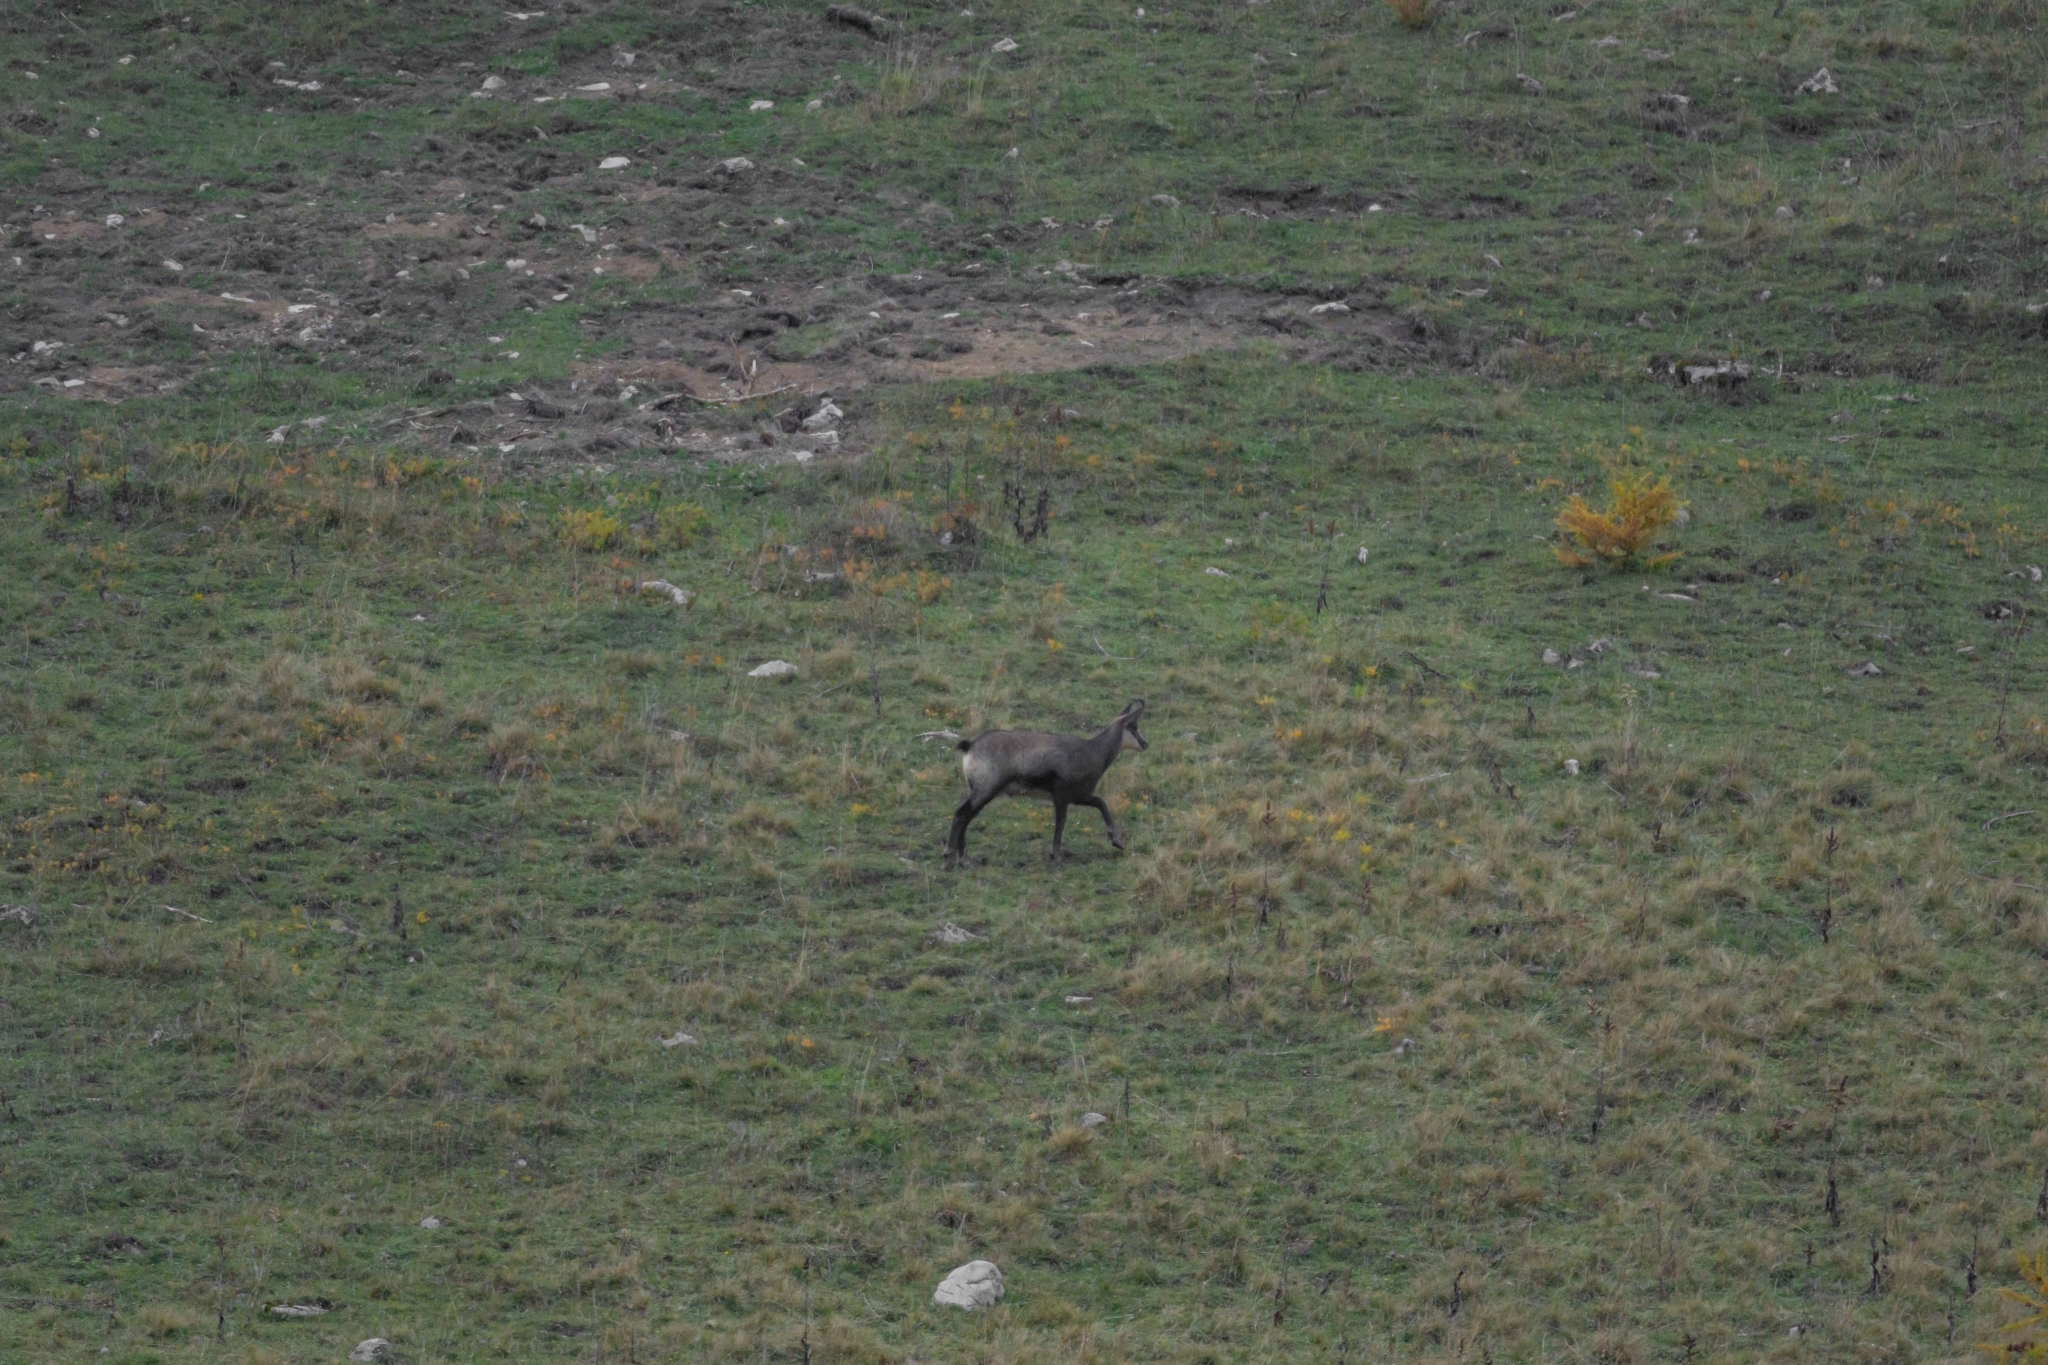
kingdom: Animalia
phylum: Chordata
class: Mammalia
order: Artiodactyla
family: Bovidae
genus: Rupicapra
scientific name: Rupicapra rupicapra
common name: Chamois
